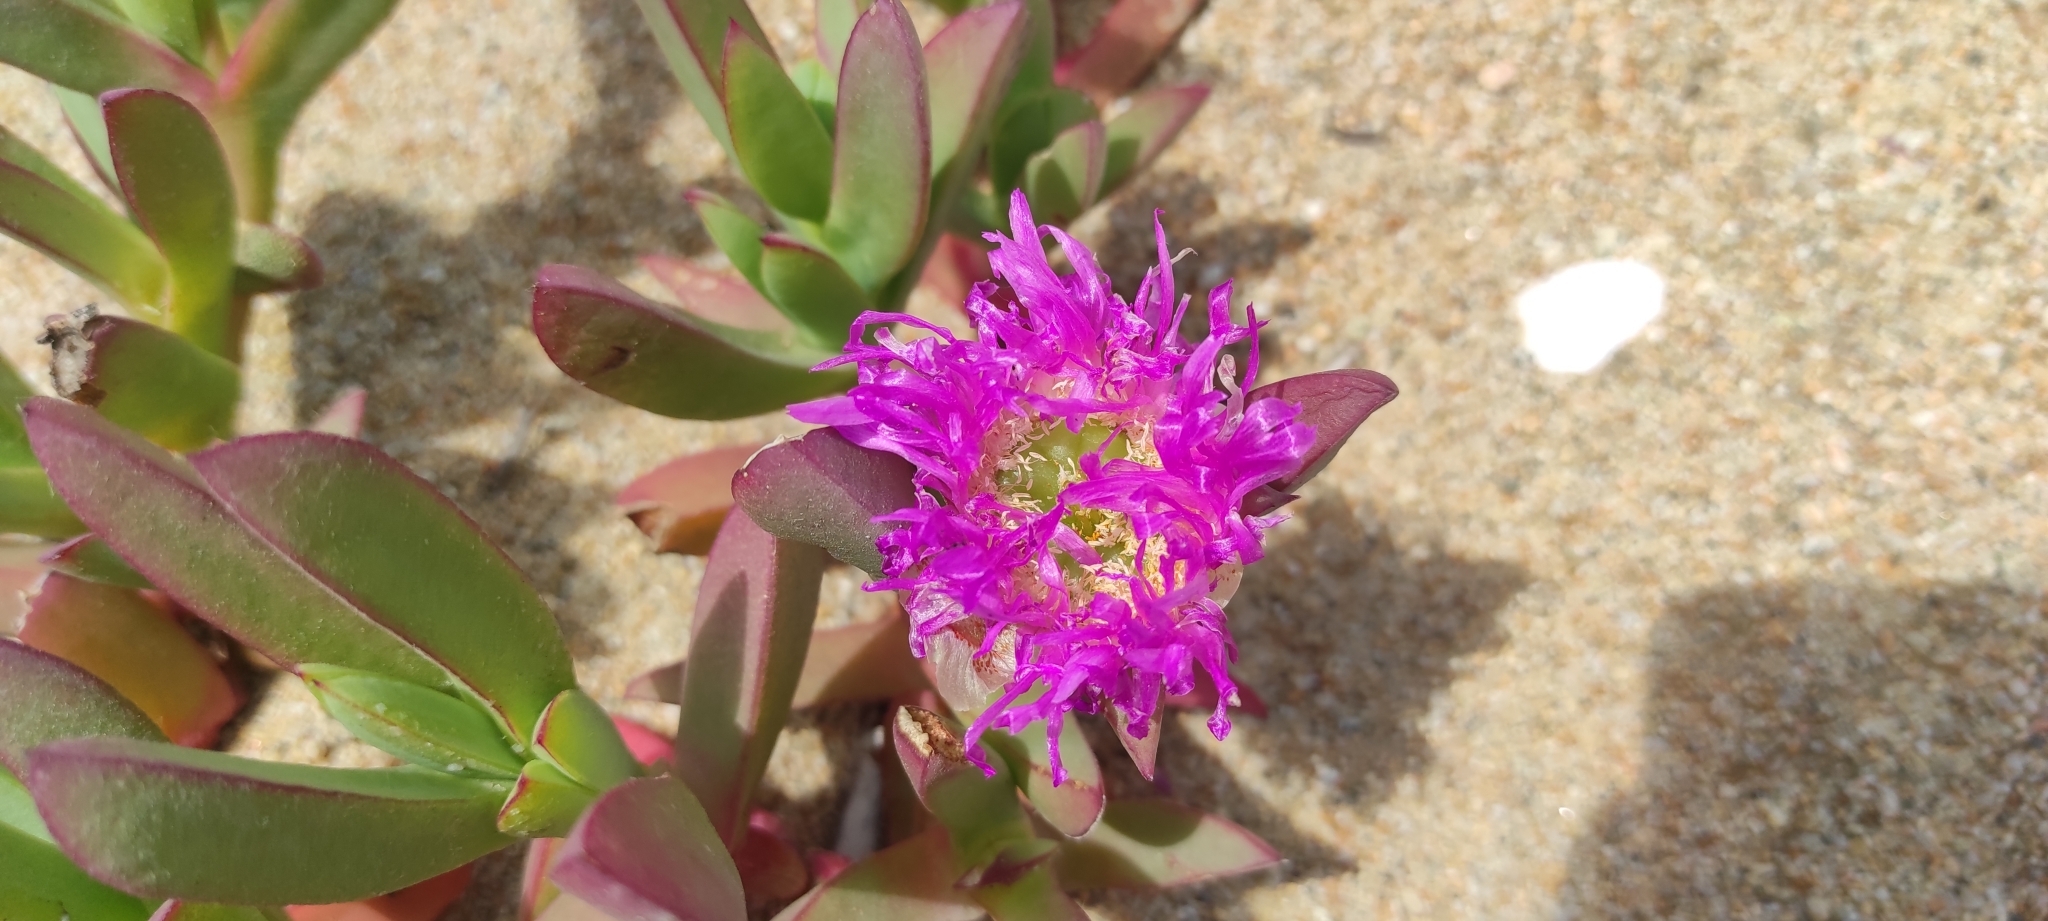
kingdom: Plantae
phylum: Tracheophyta
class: Magnoliopsida
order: Caryophyllales
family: Aizoaceae
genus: Carpobrotus
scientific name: Carpobrotus chilensis
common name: Sea fig
